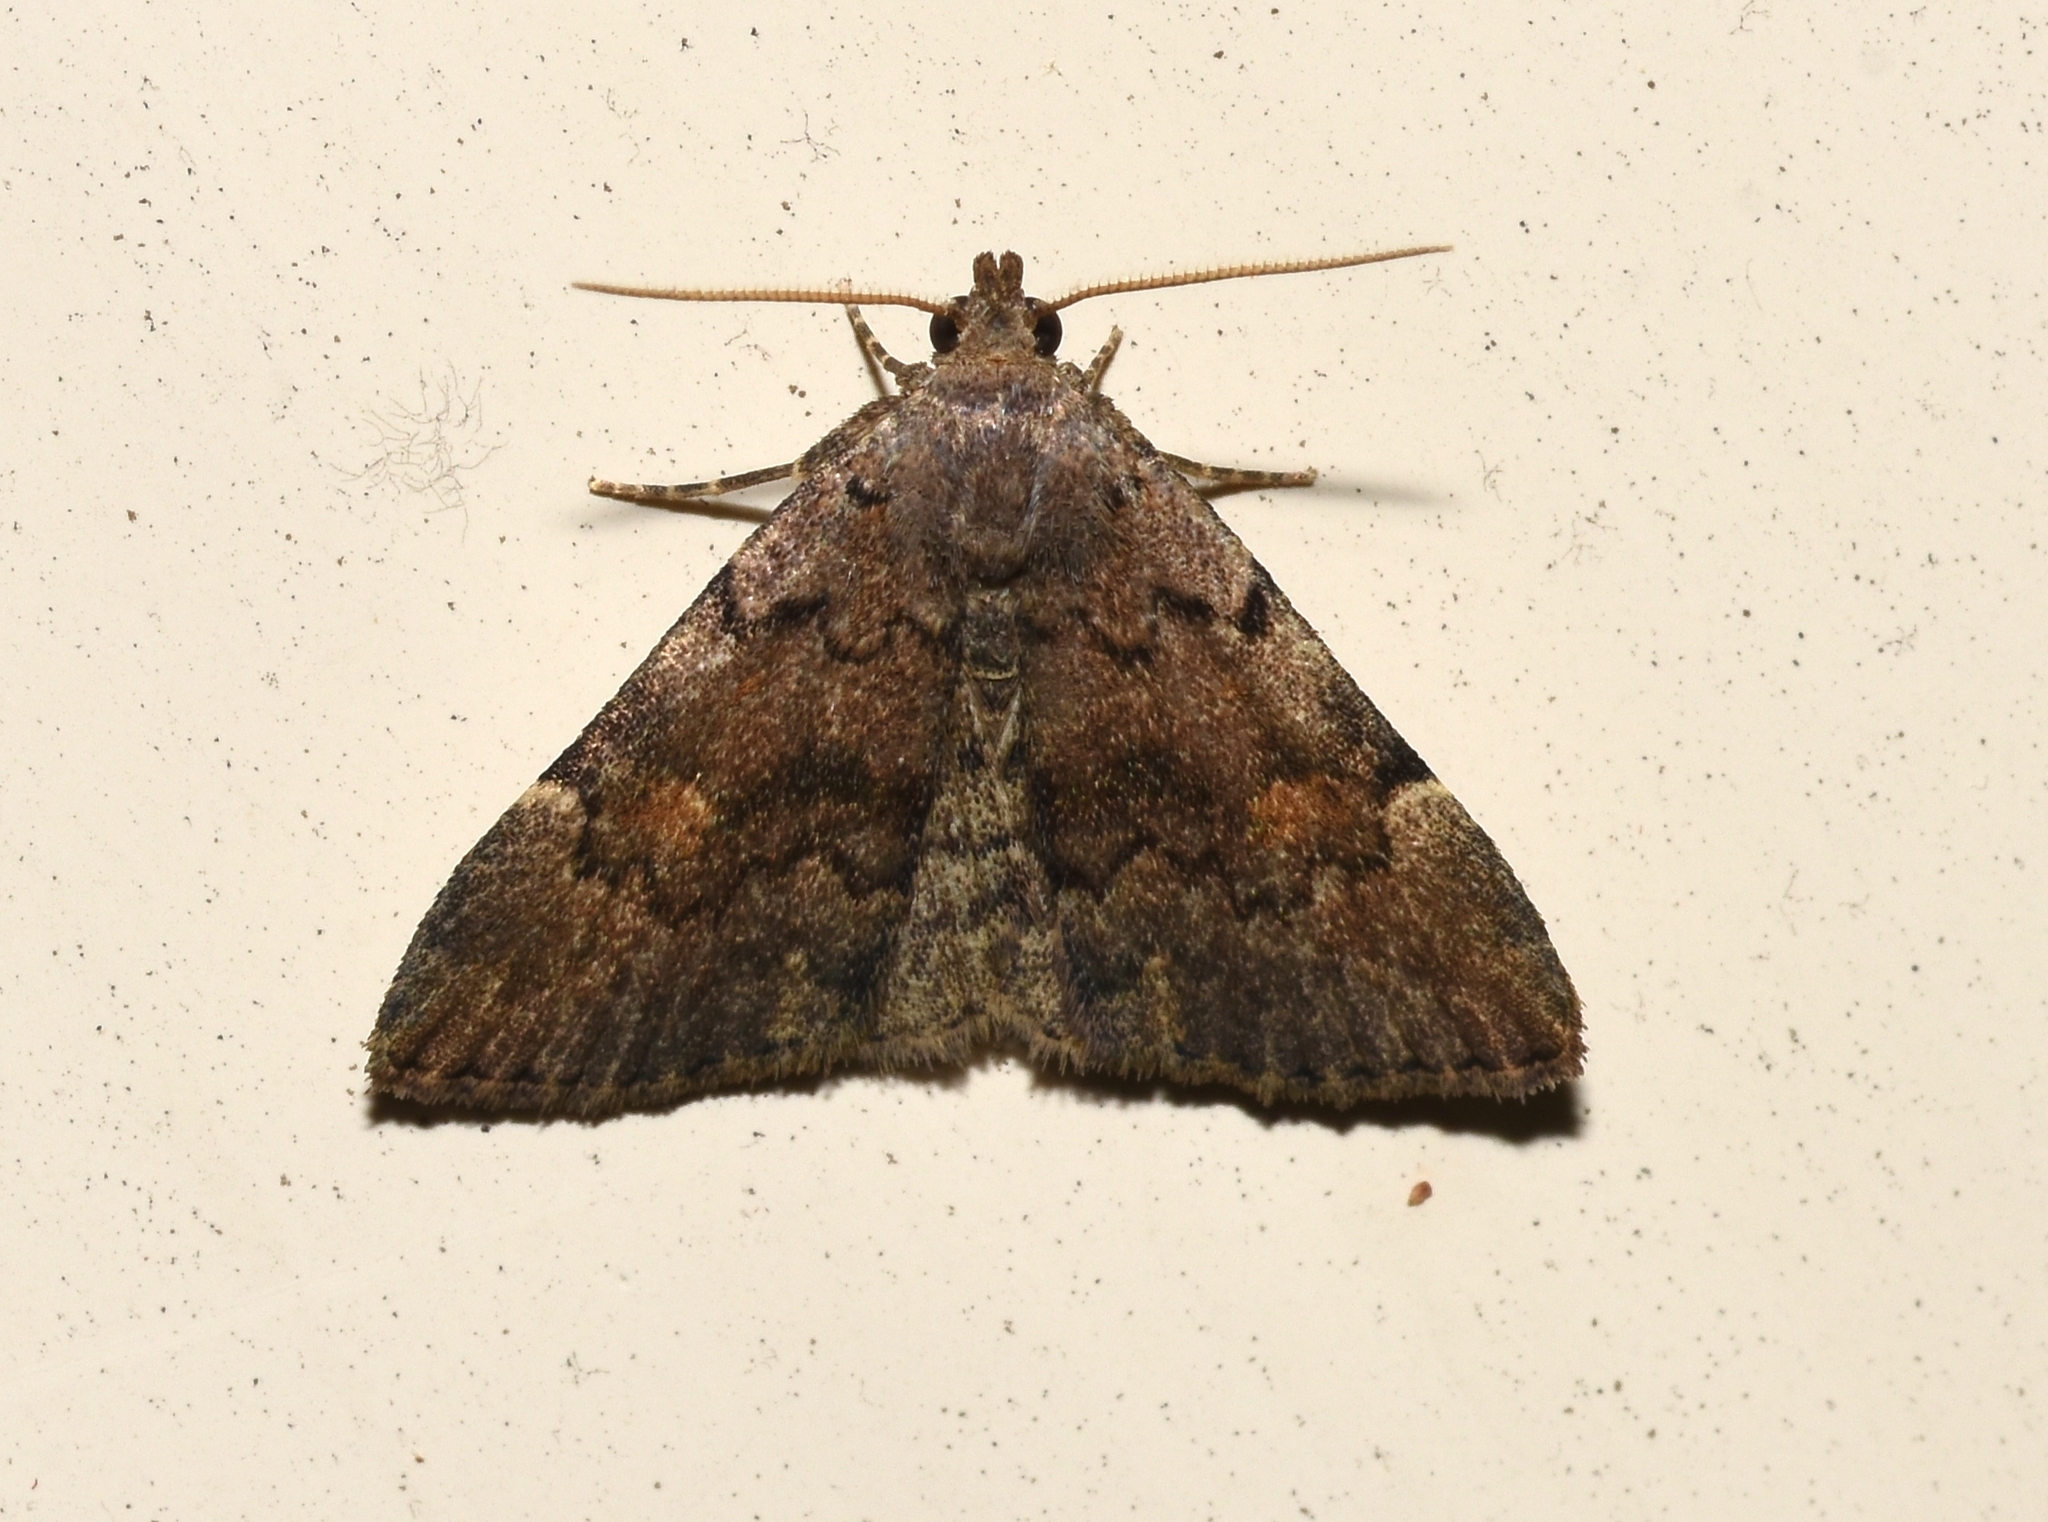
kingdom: Animalia
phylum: Arthropoda
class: Insecta
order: Lepidoptera
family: Erebidae
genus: Idia
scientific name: Idia aemula
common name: Common idia moth
